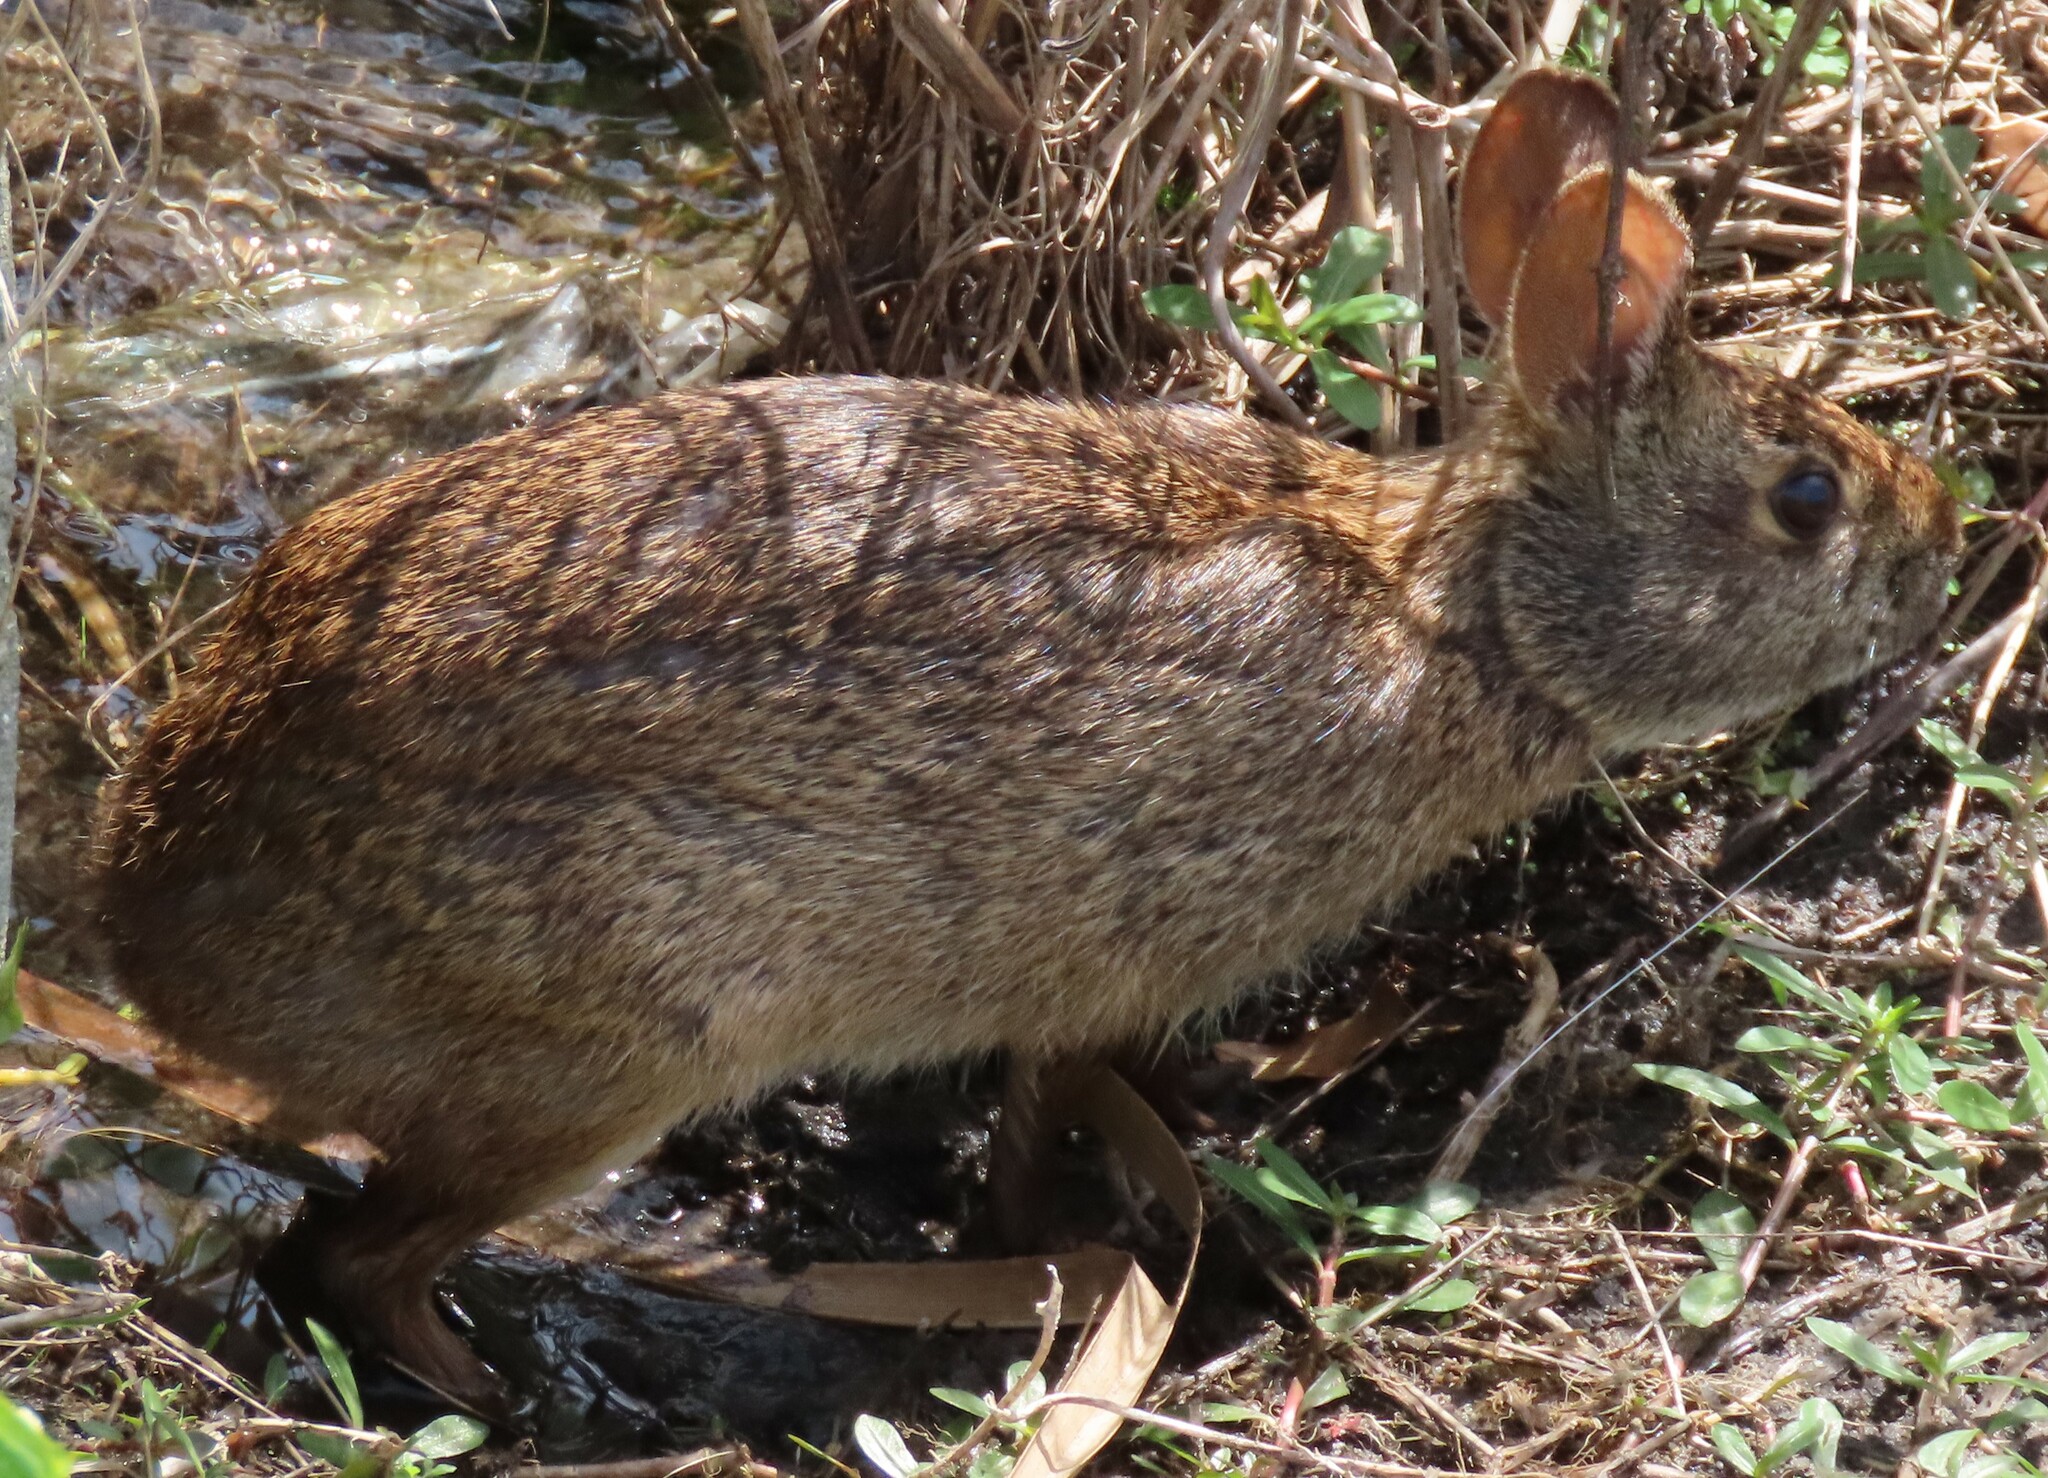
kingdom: Animalia
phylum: Chordata
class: Mammalia
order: Lagomorpha
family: Leporidae
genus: Sylvilagus
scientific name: Sylvilagus palustris
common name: Marsh rabbit
